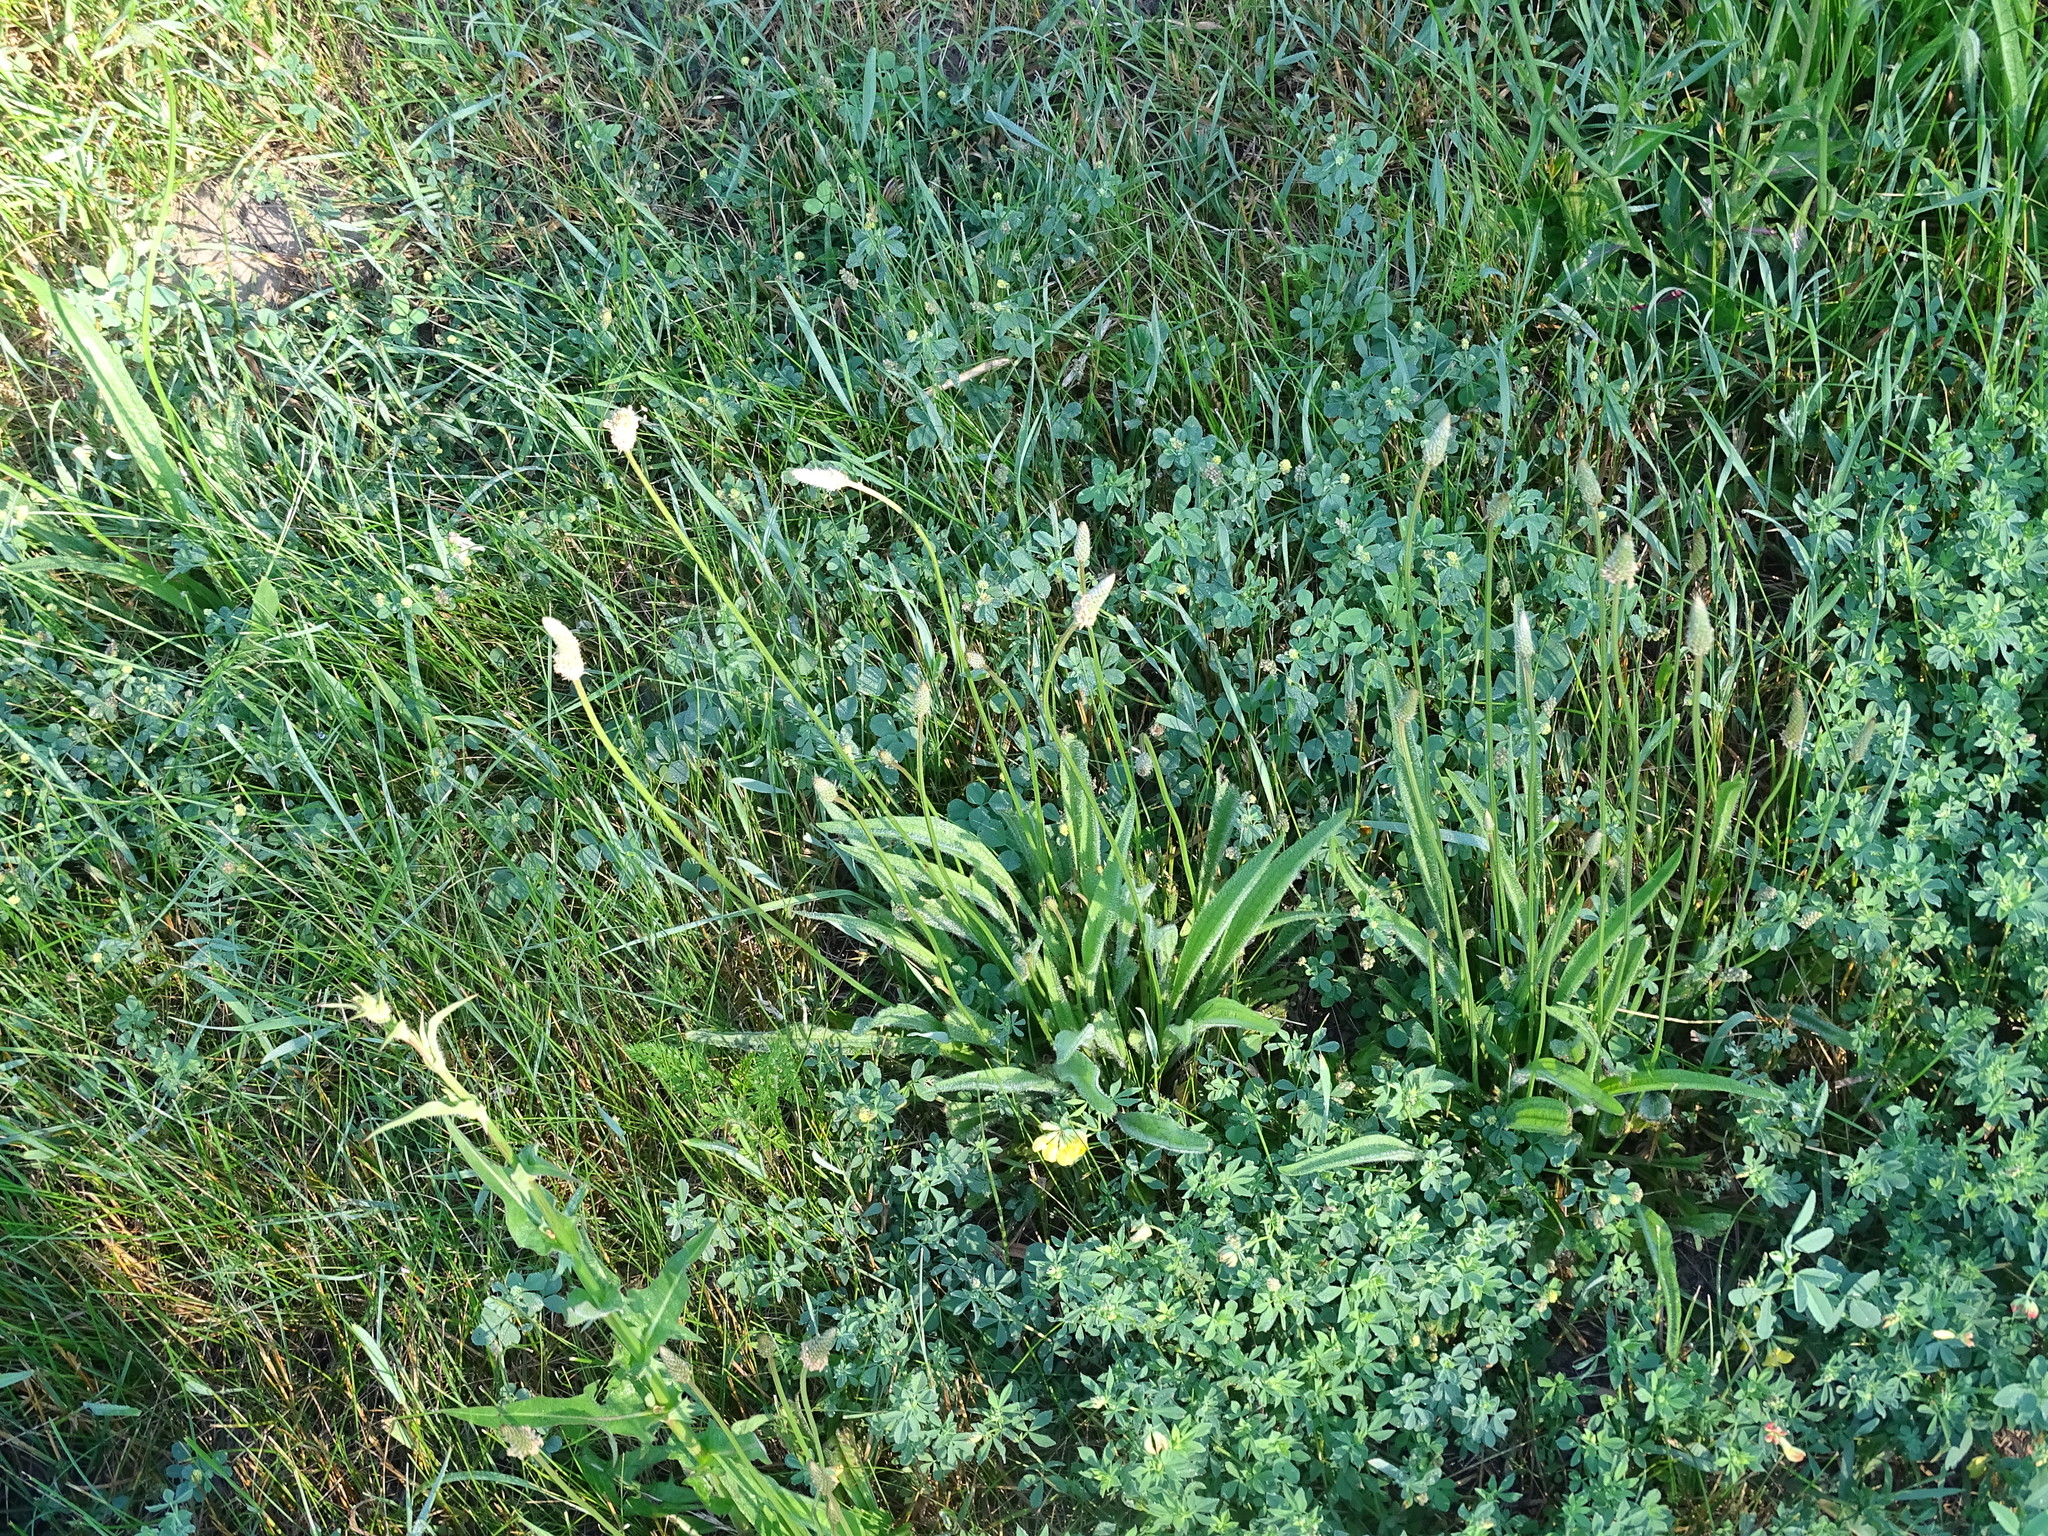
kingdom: Plantae
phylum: Tracheophyta
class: Magnoliopsida
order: Lamiales
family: Plantaginaceae
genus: Plantago
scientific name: Plantago lanceolata
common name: Ribwort plantain
